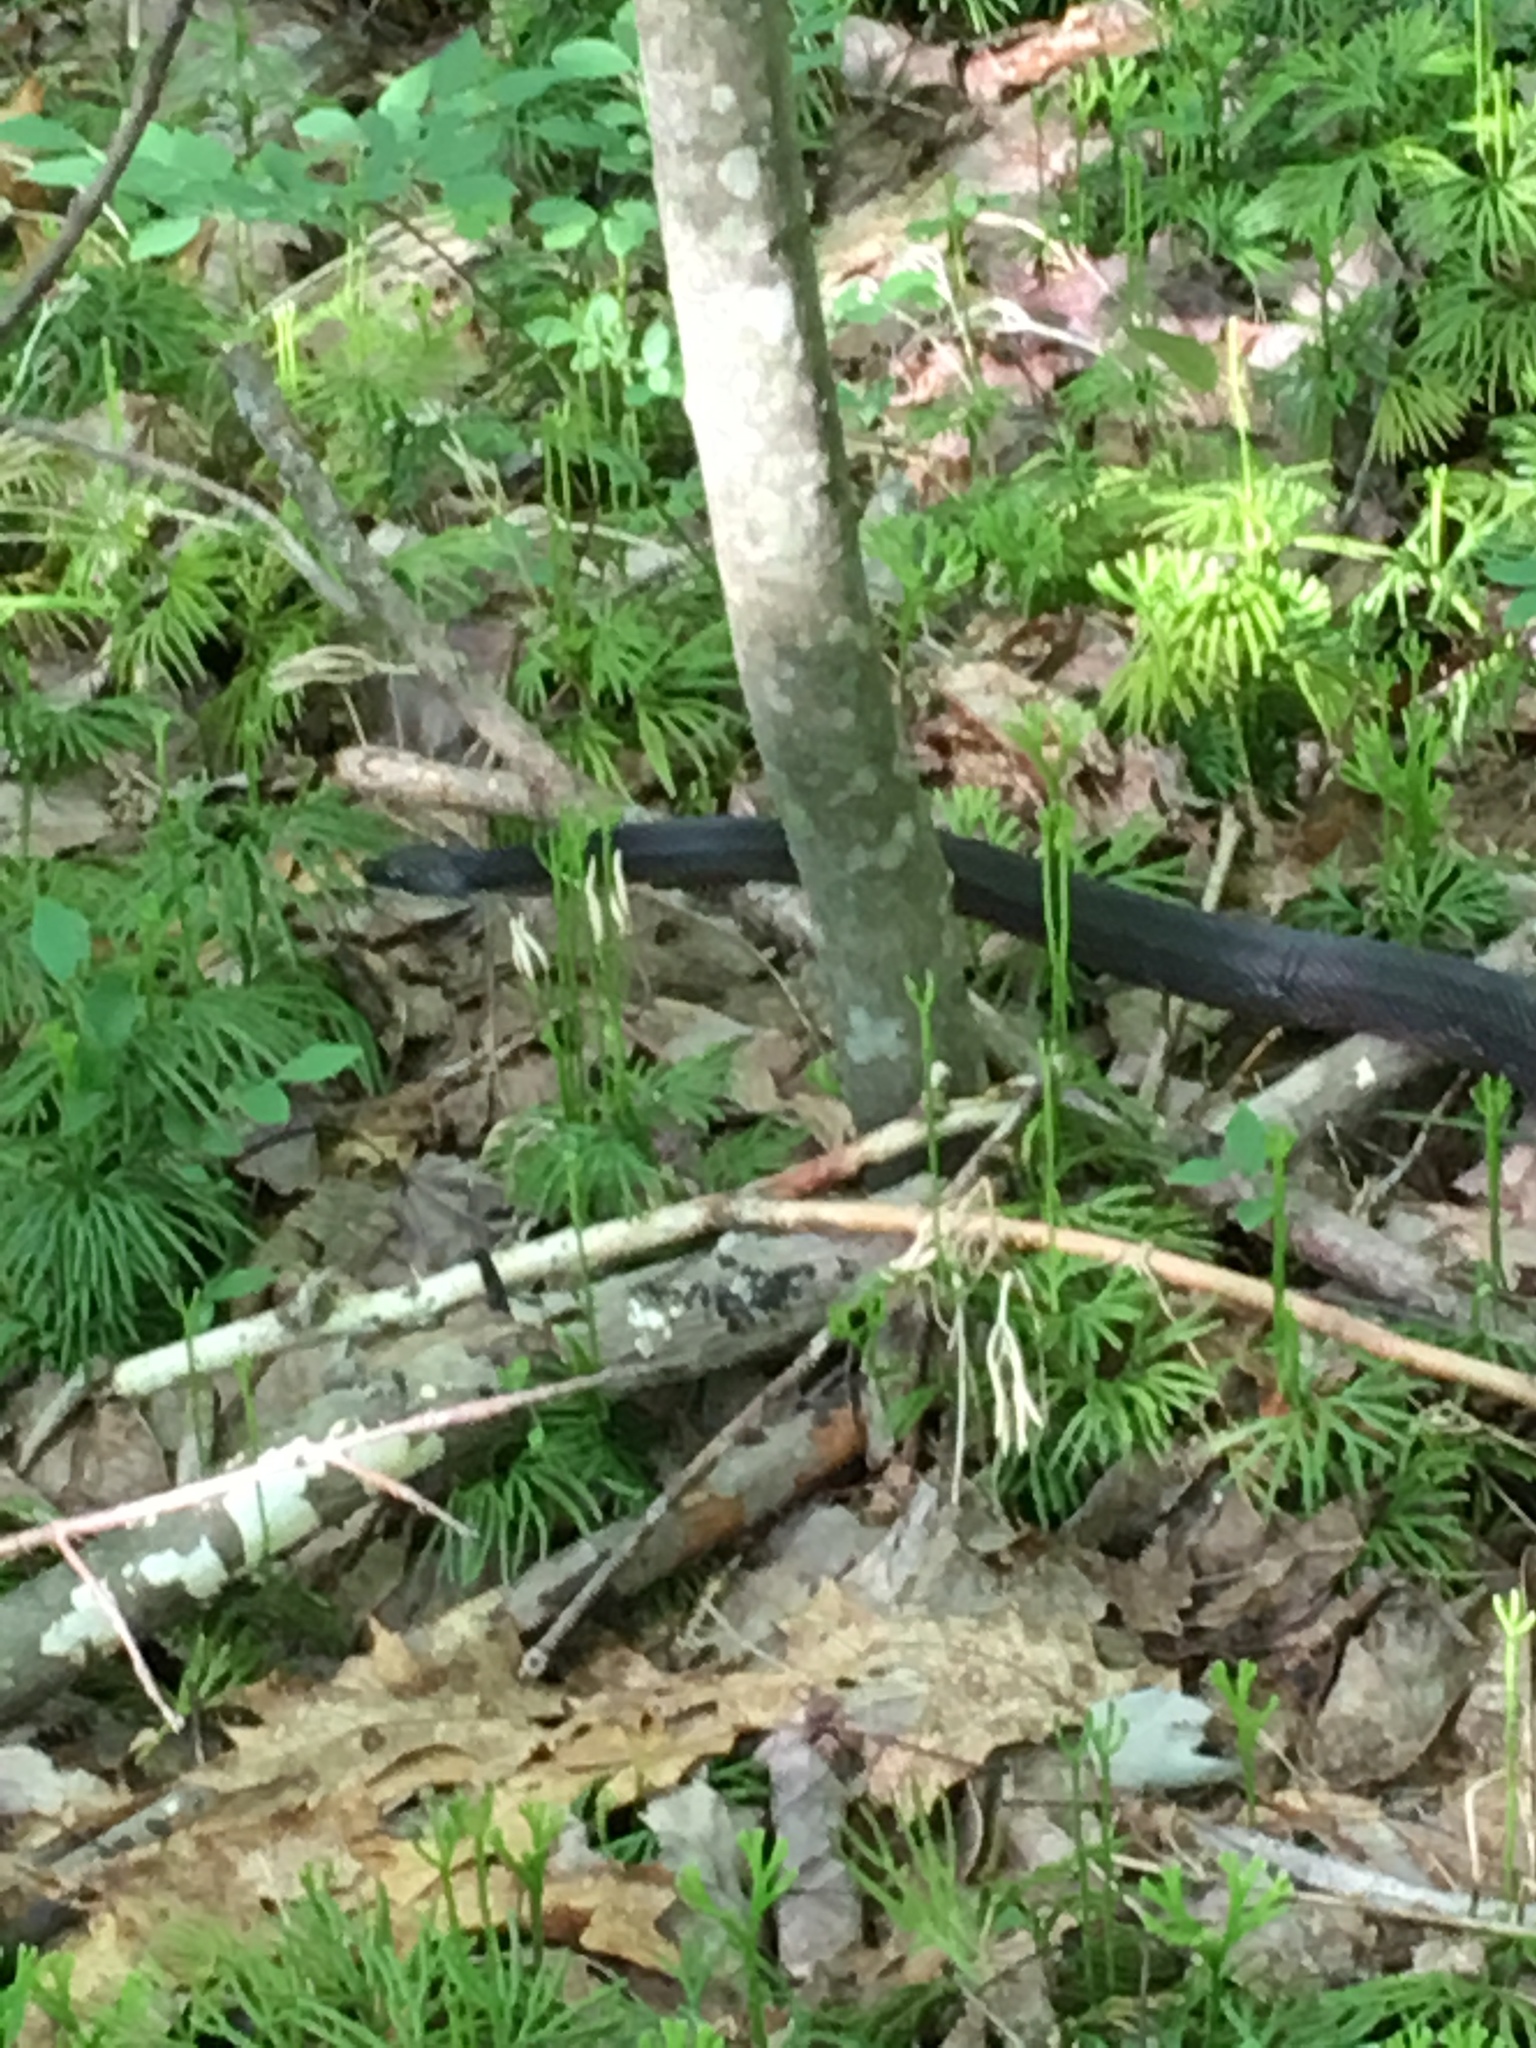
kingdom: Animalia
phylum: Chordata
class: Squamata
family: Colubridae
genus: Pantherophis
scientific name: Pantherophis spiloides
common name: Gray rat snake
